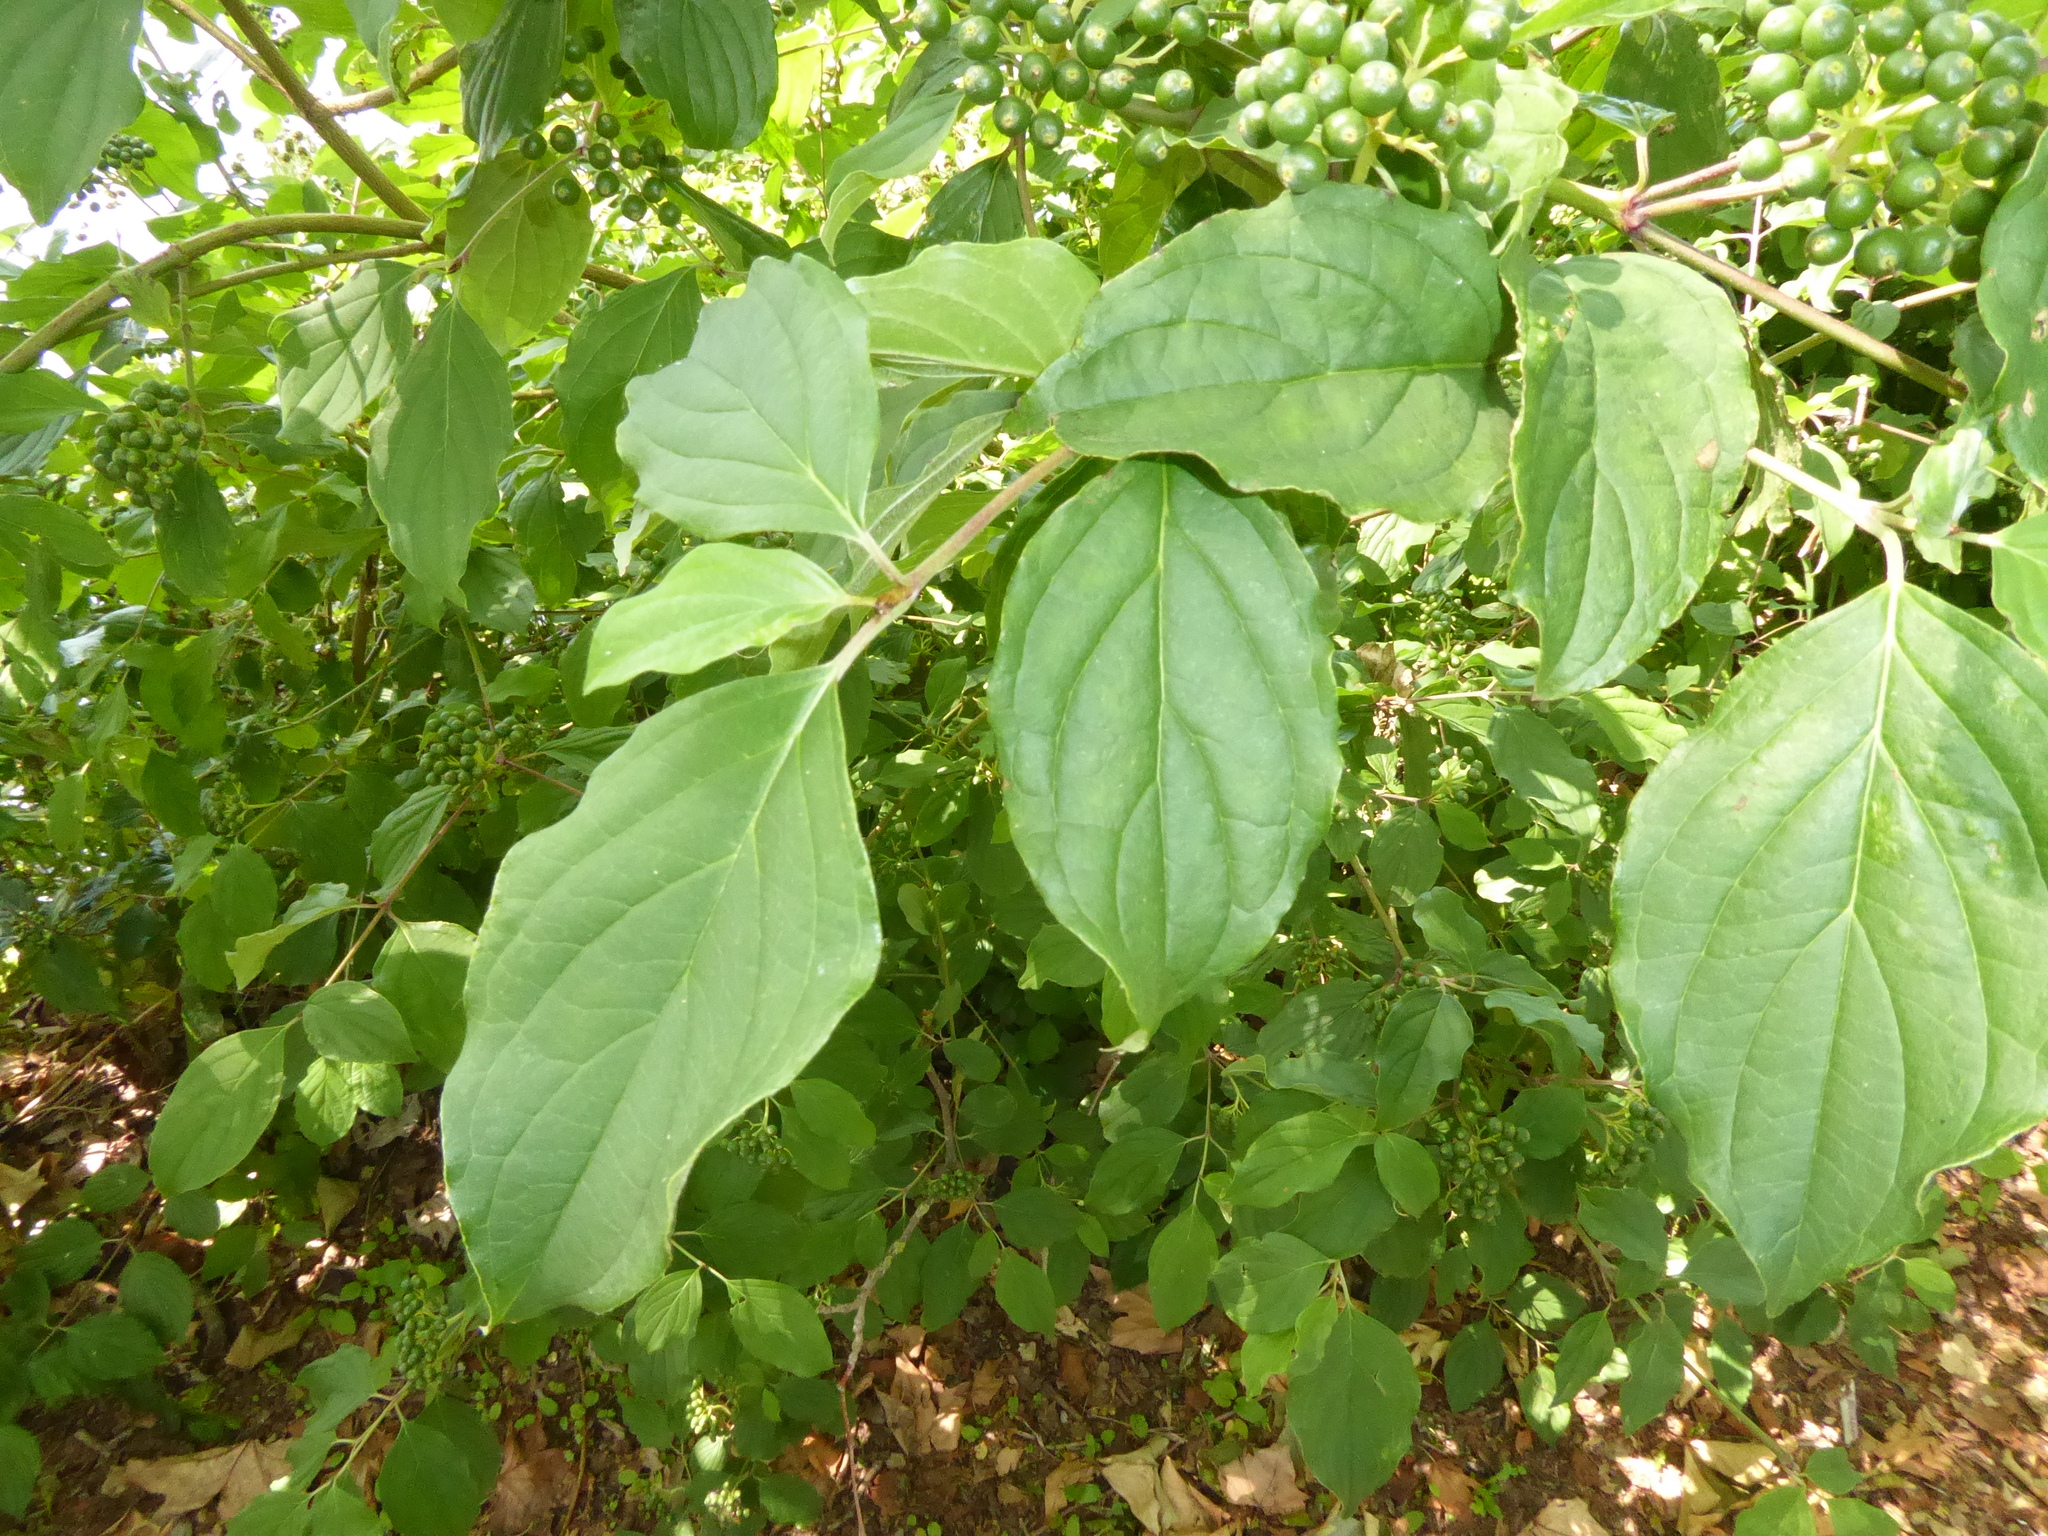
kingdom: Plantae
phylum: Tracheophyta
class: Magnoliopsida
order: Cornales
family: Cornaceae
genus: Cornus
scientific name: Cornus sanguinea
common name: Dogwood
